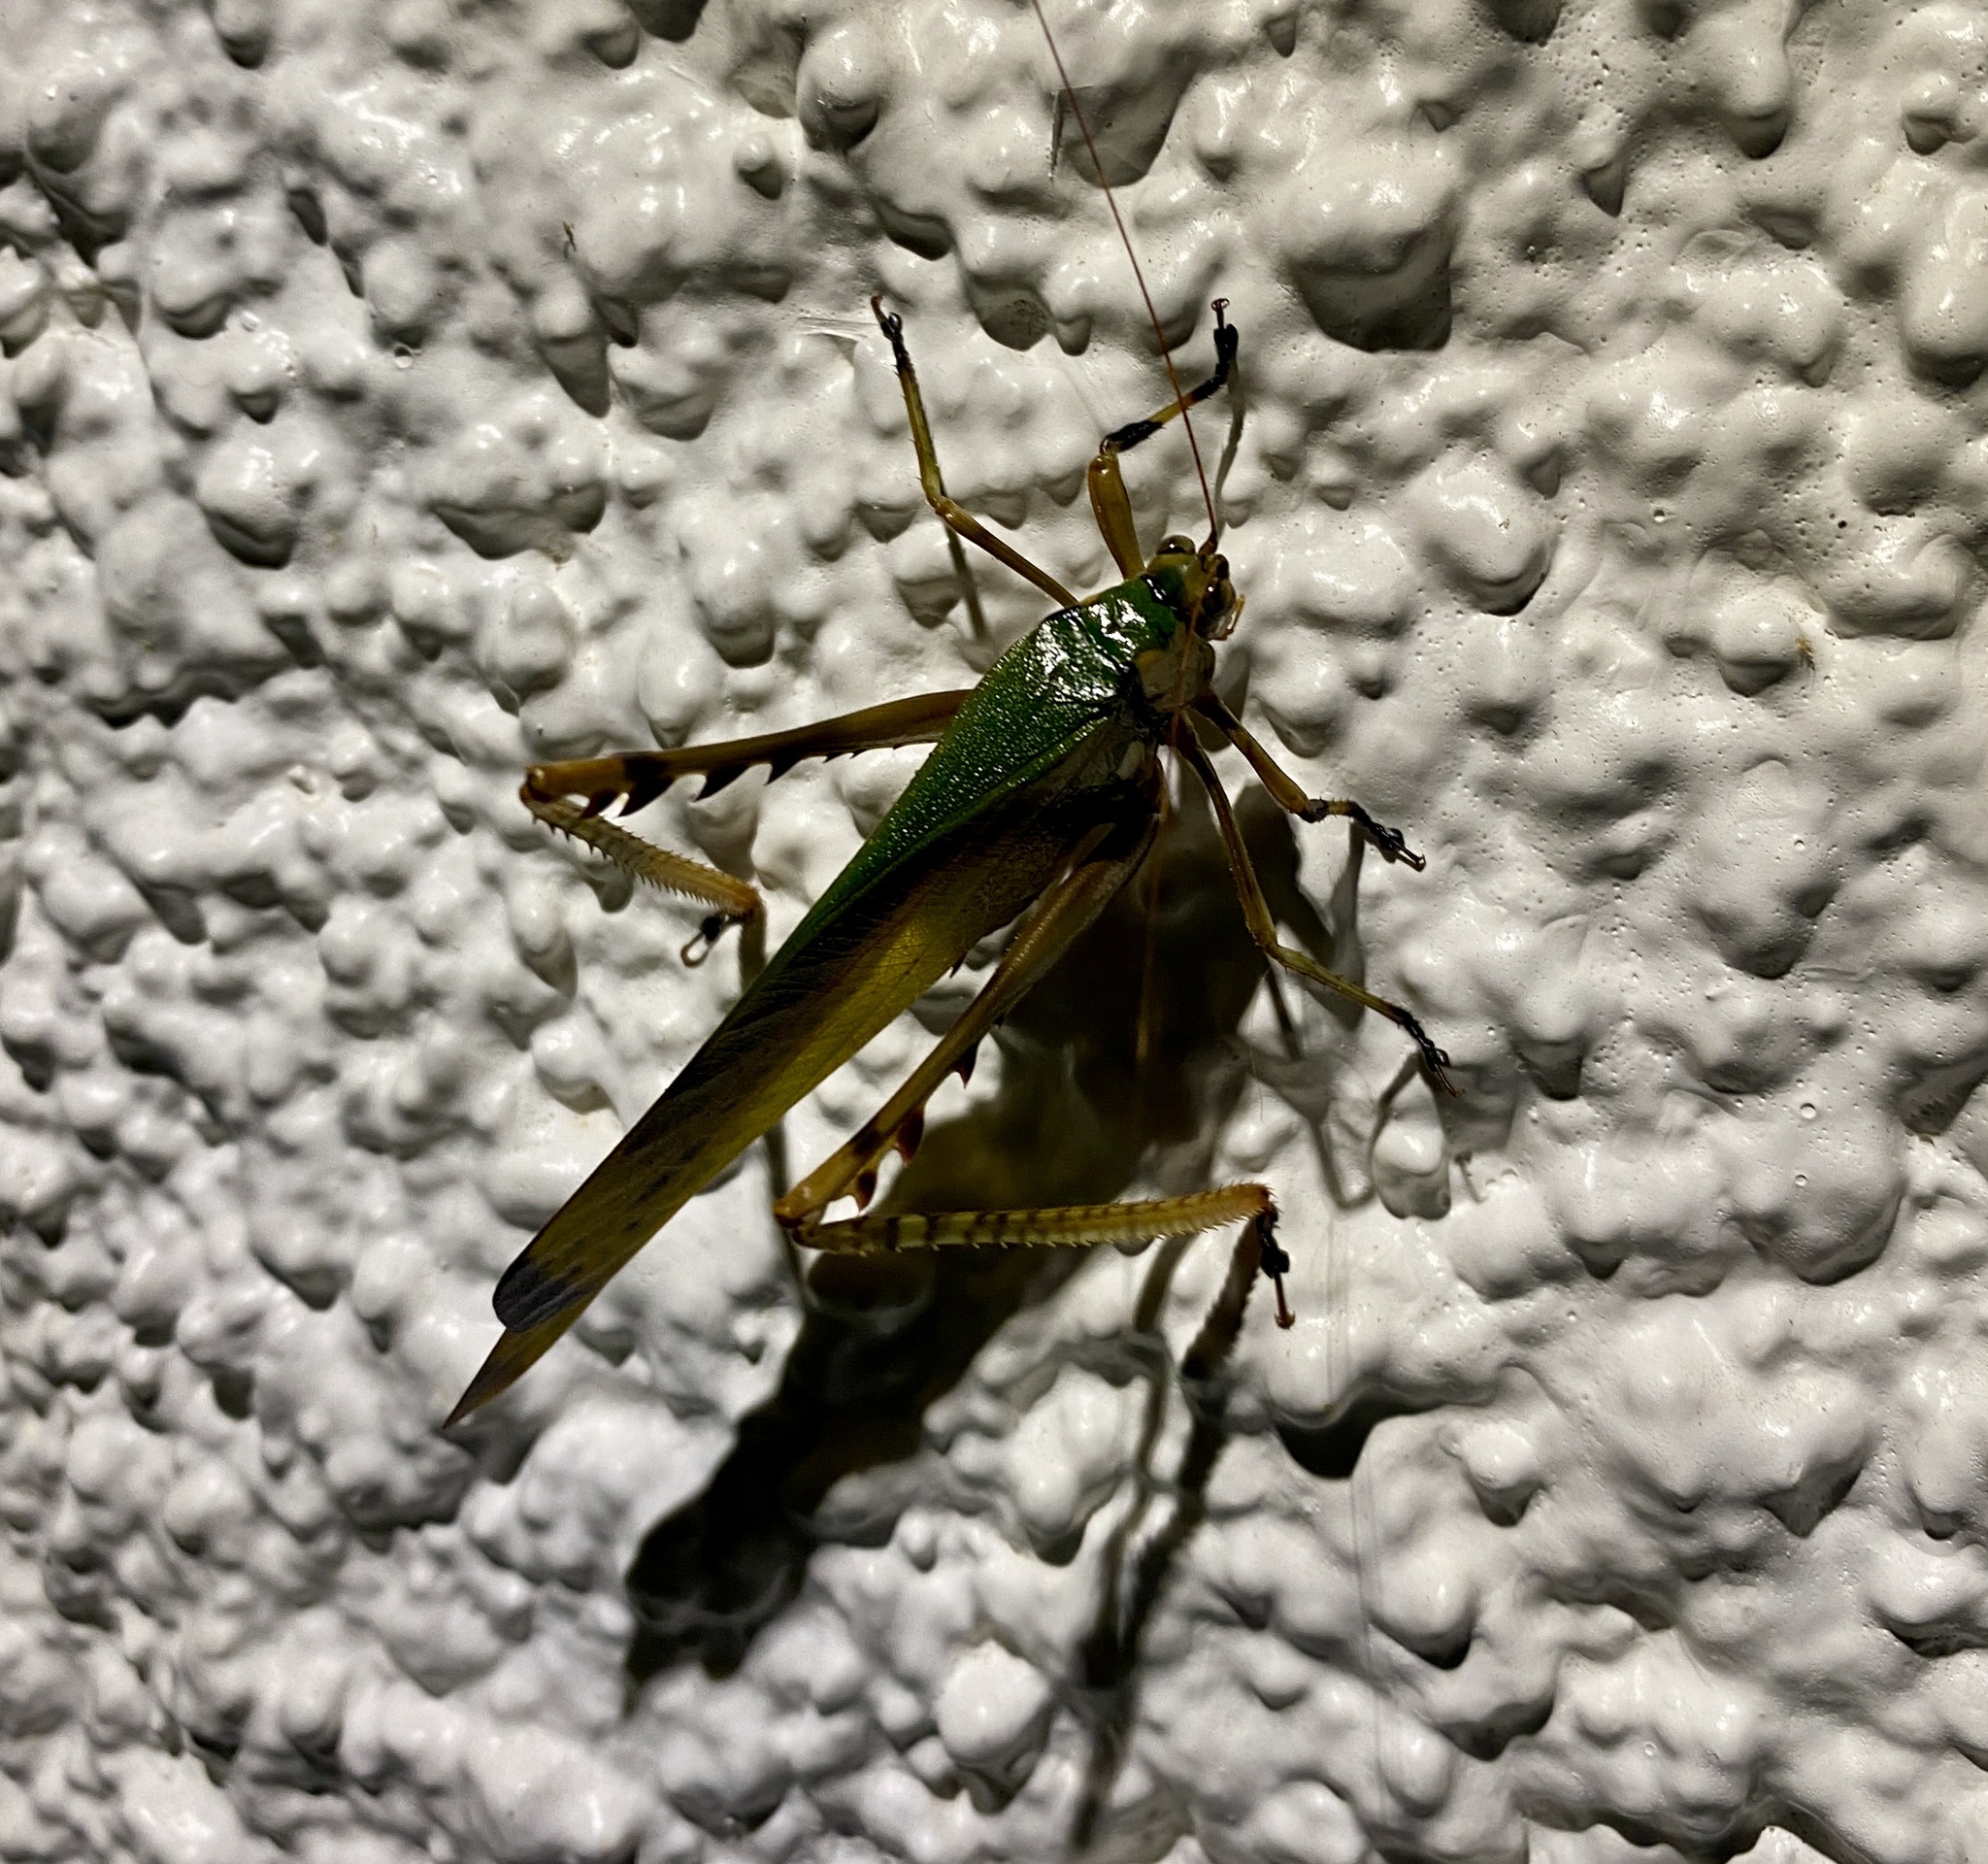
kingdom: Animalia
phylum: Arthropoda
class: Insecta
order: Orthoptera
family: Tettigoniidae
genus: Vellea
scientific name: Vellea pulchra
